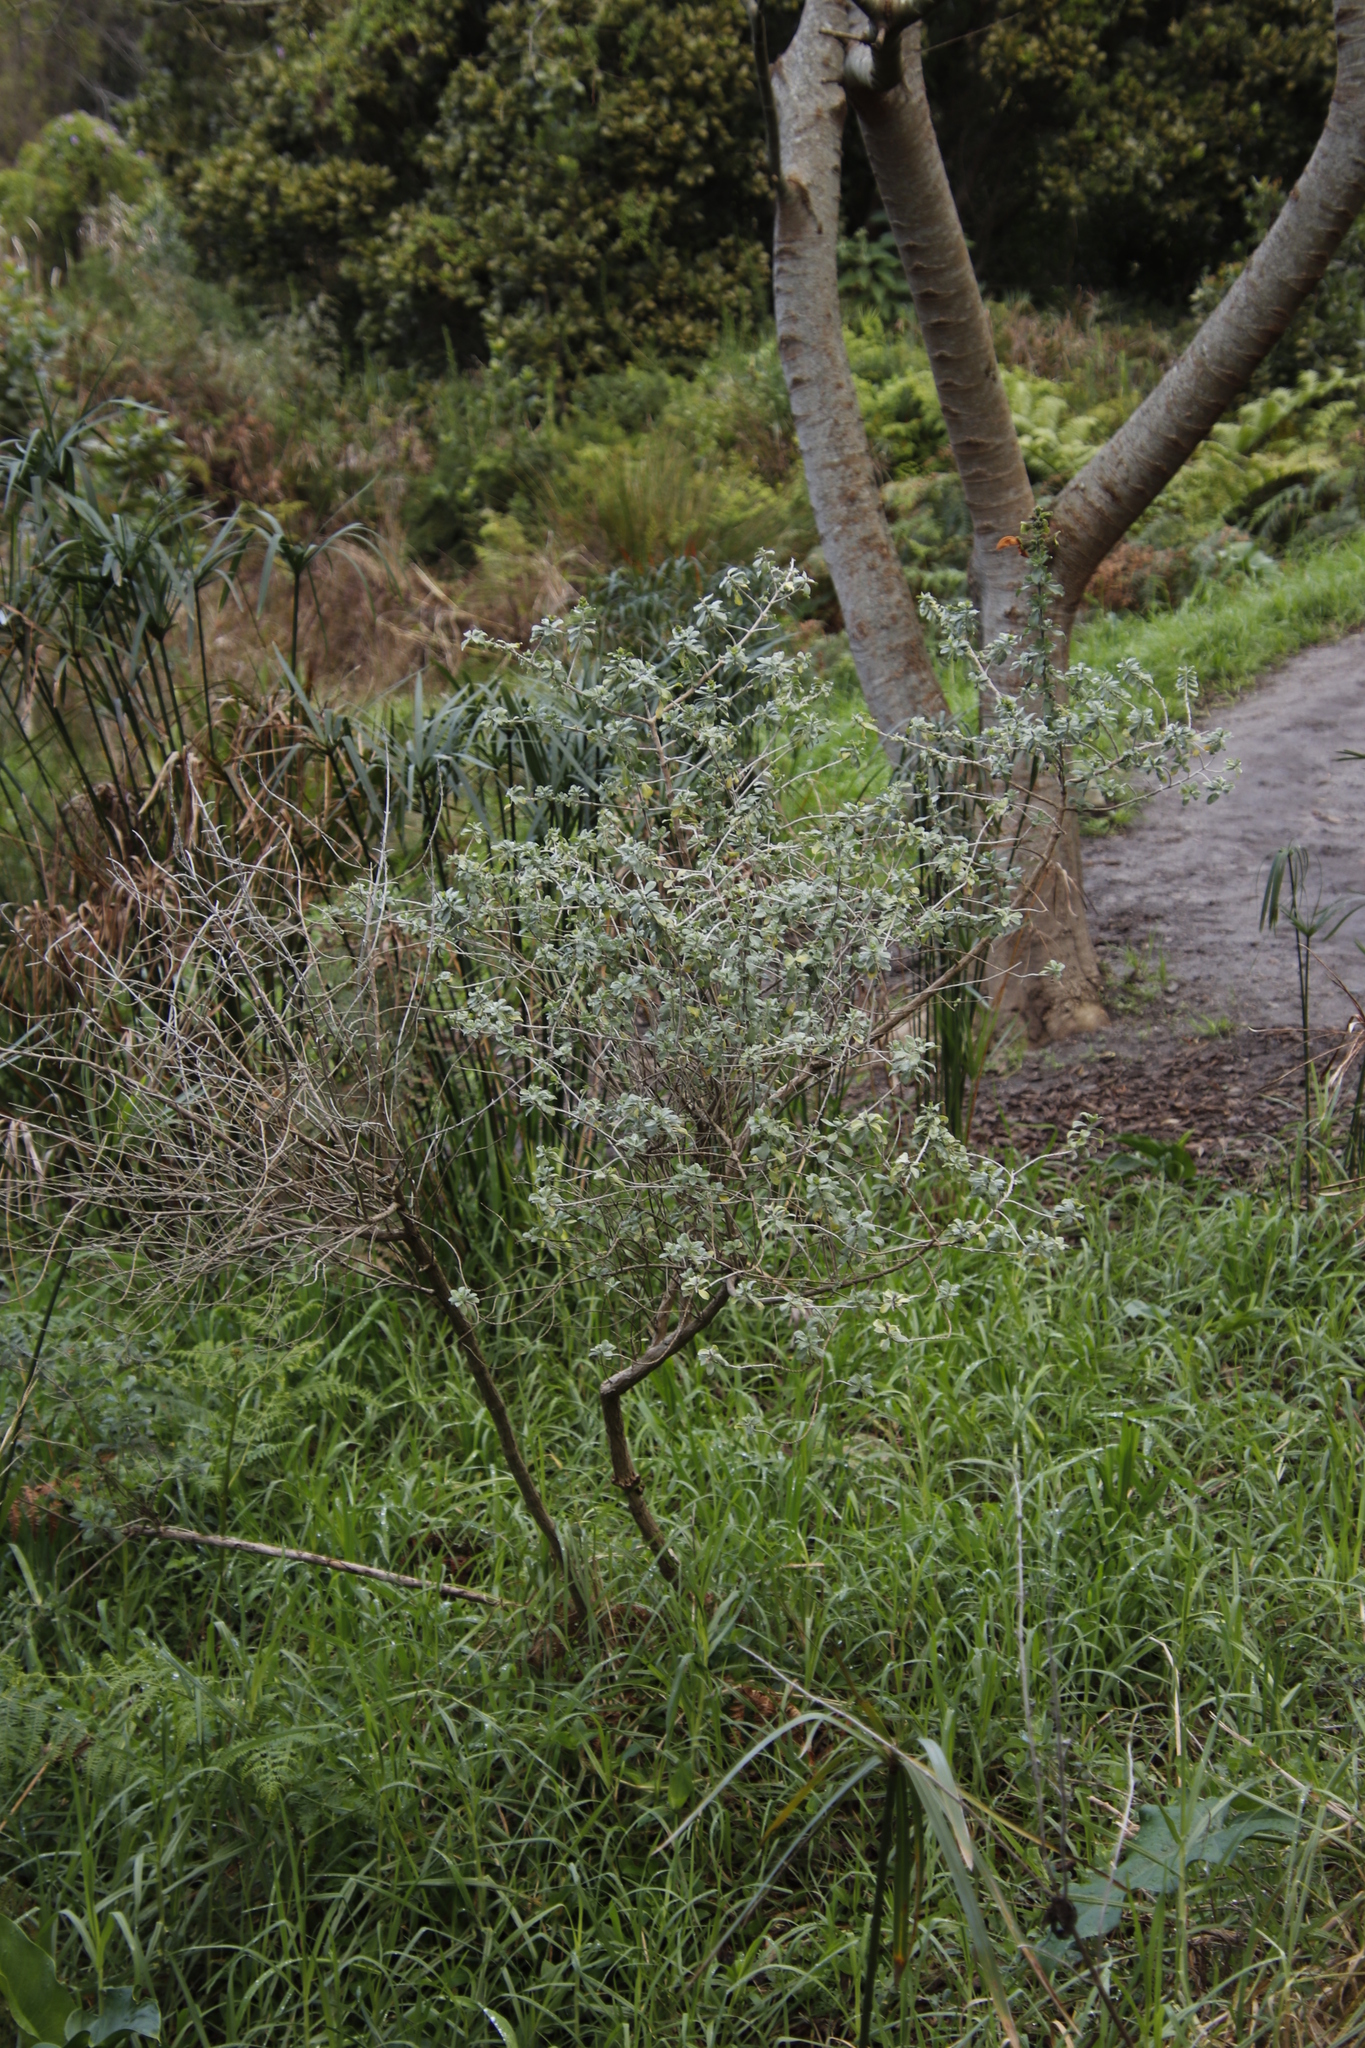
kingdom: Plantae
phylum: Tracheophyta
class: Magnoliopsida
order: Lamiales
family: Lamiaceae
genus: Salvia
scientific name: Salvia aurea
